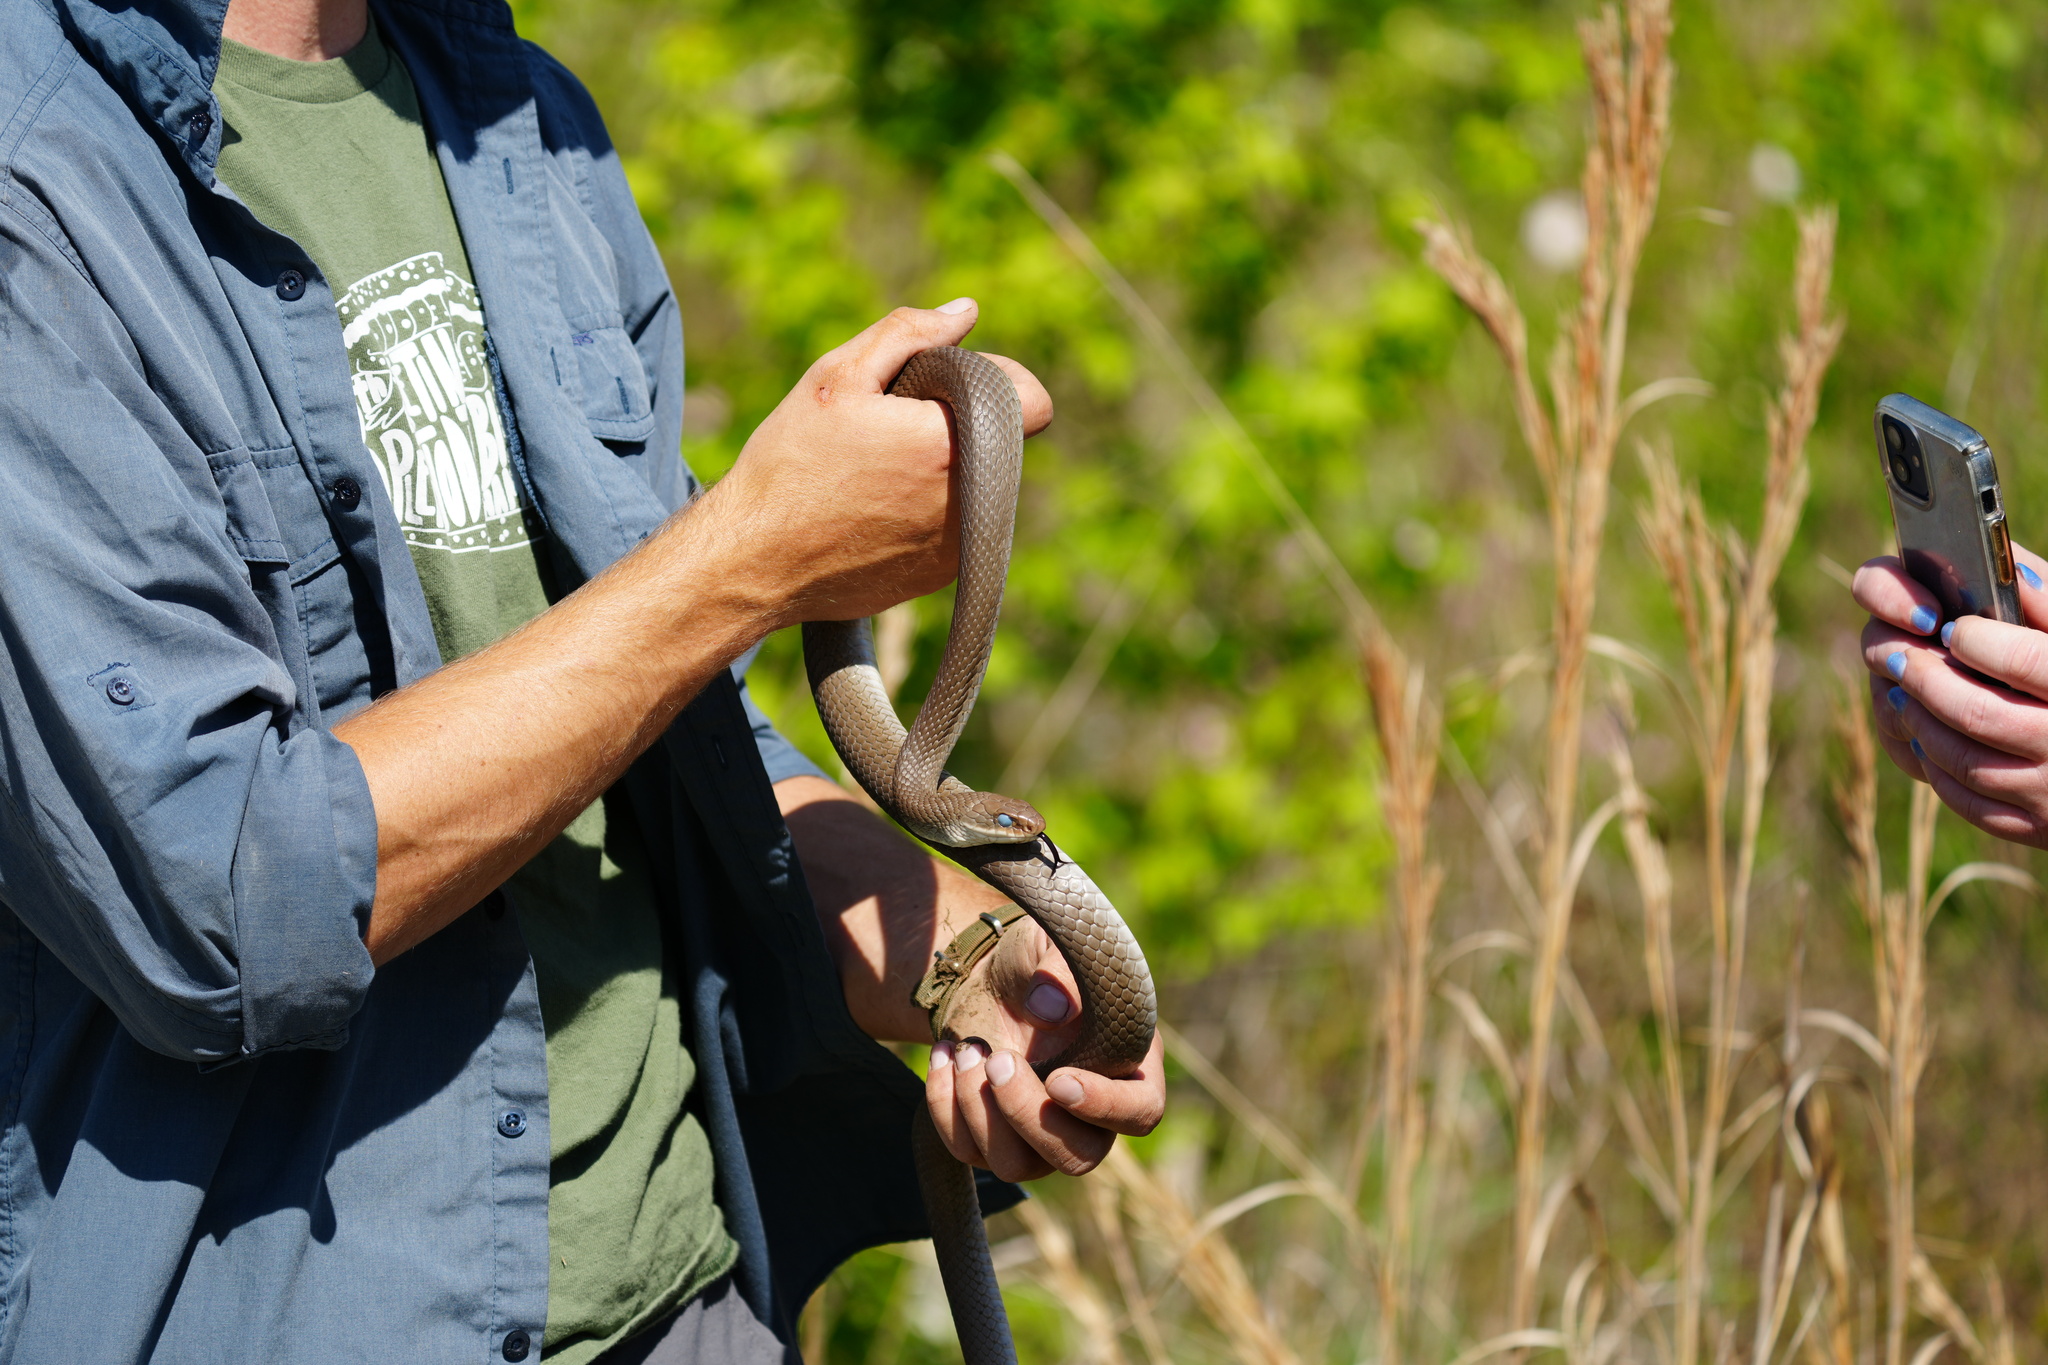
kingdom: Animalia
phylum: Chordata
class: Squamata
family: Colubridae
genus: Coluber
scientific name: Coluber constrictor
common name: Eastern racer
